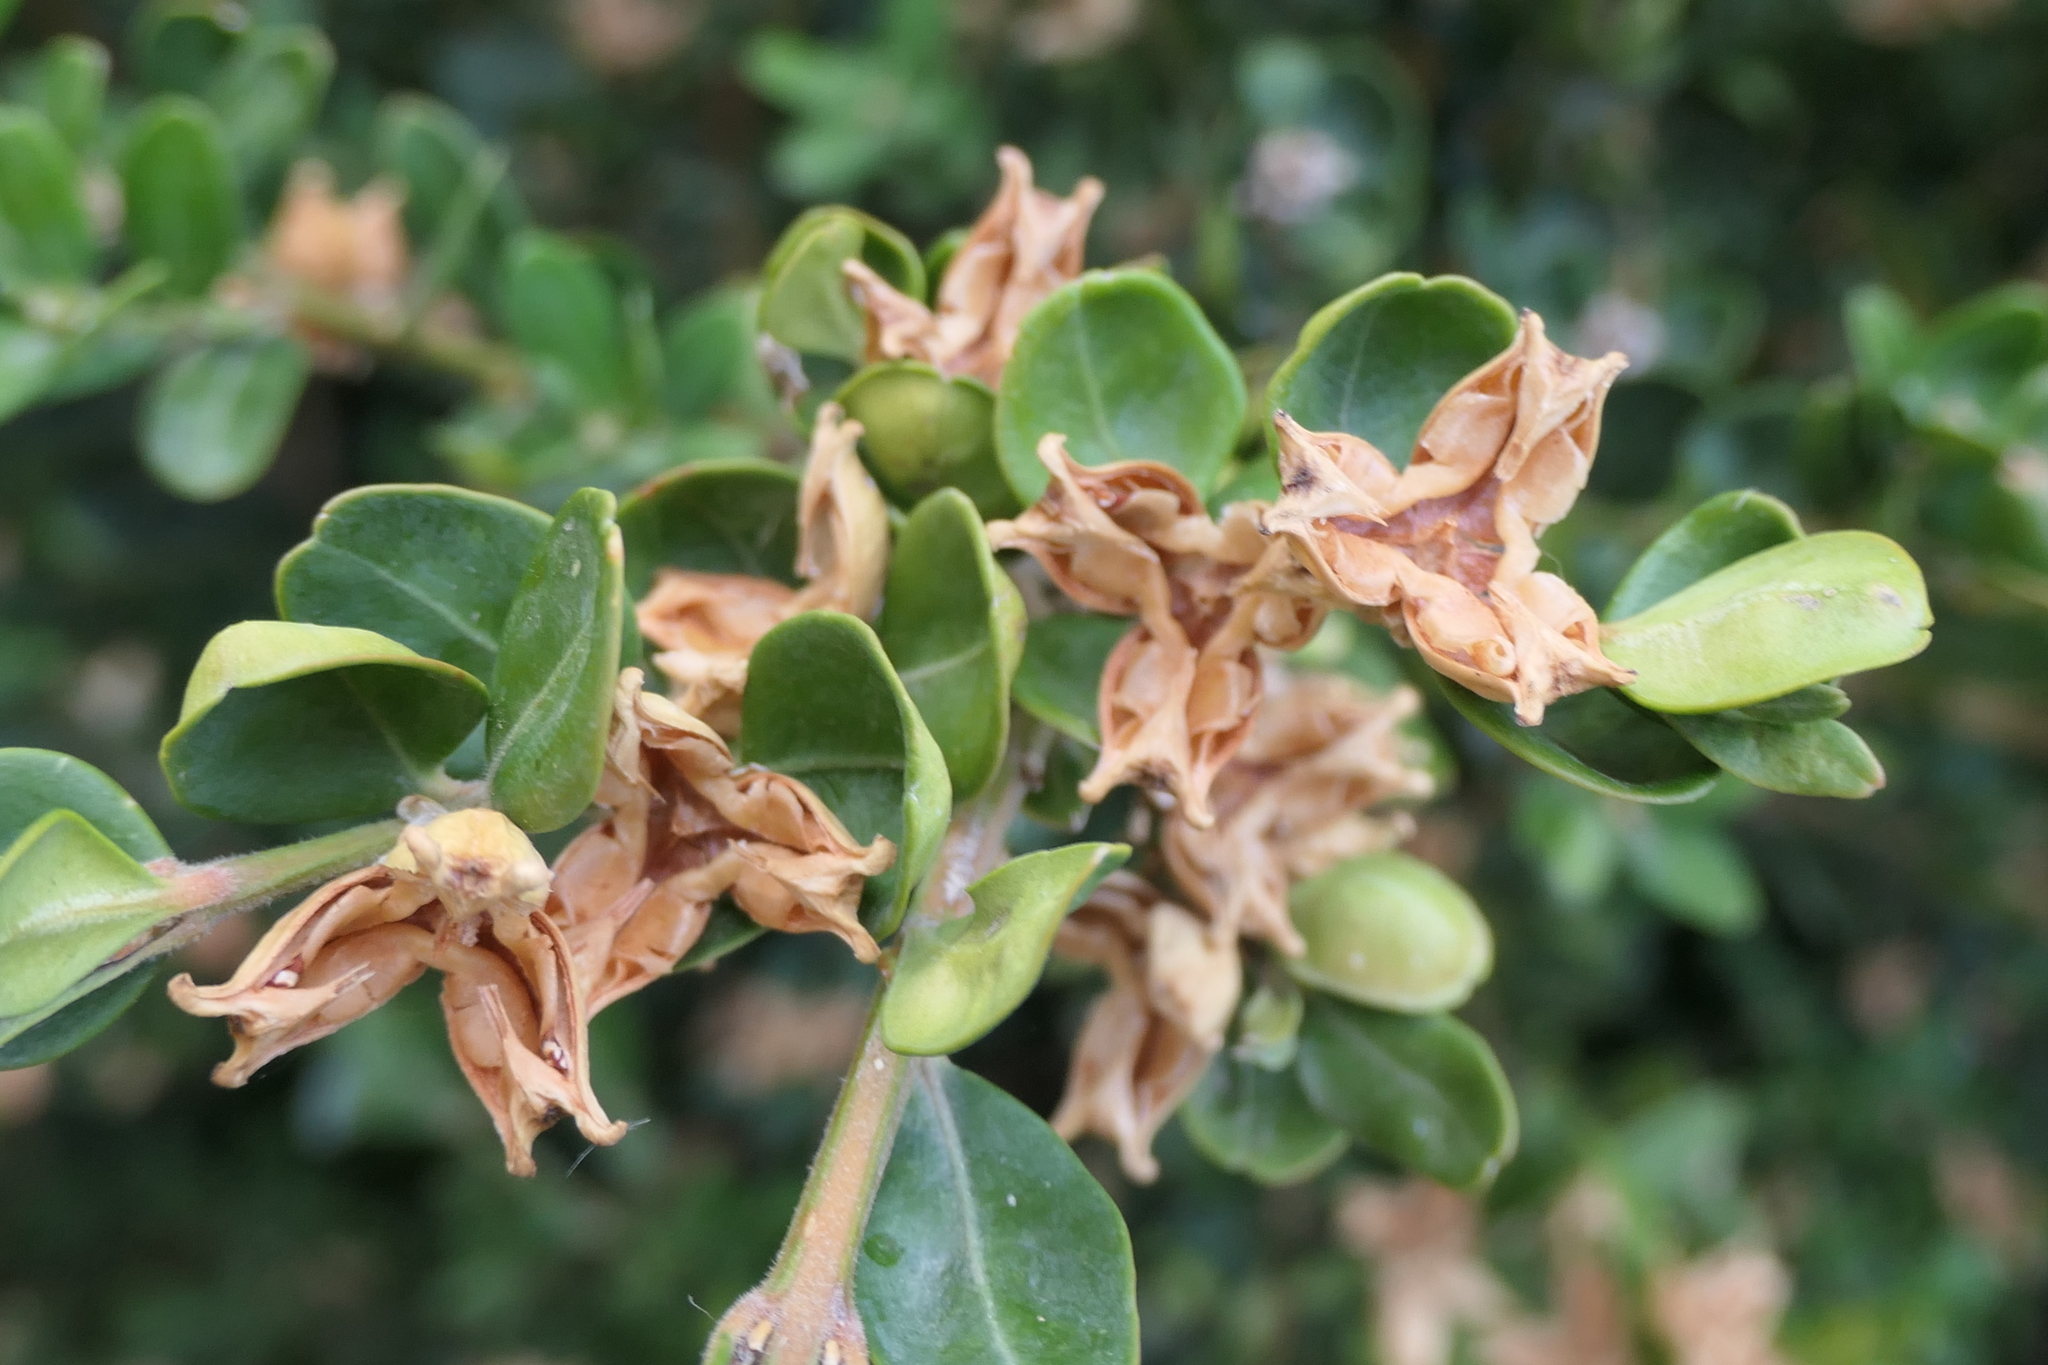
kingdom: Plantae
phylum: Tracheophyta
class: Magnoliopsida
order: Buxales
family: Buxaceae
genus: Buxus
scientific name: Buxus sempervirens
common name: Box
